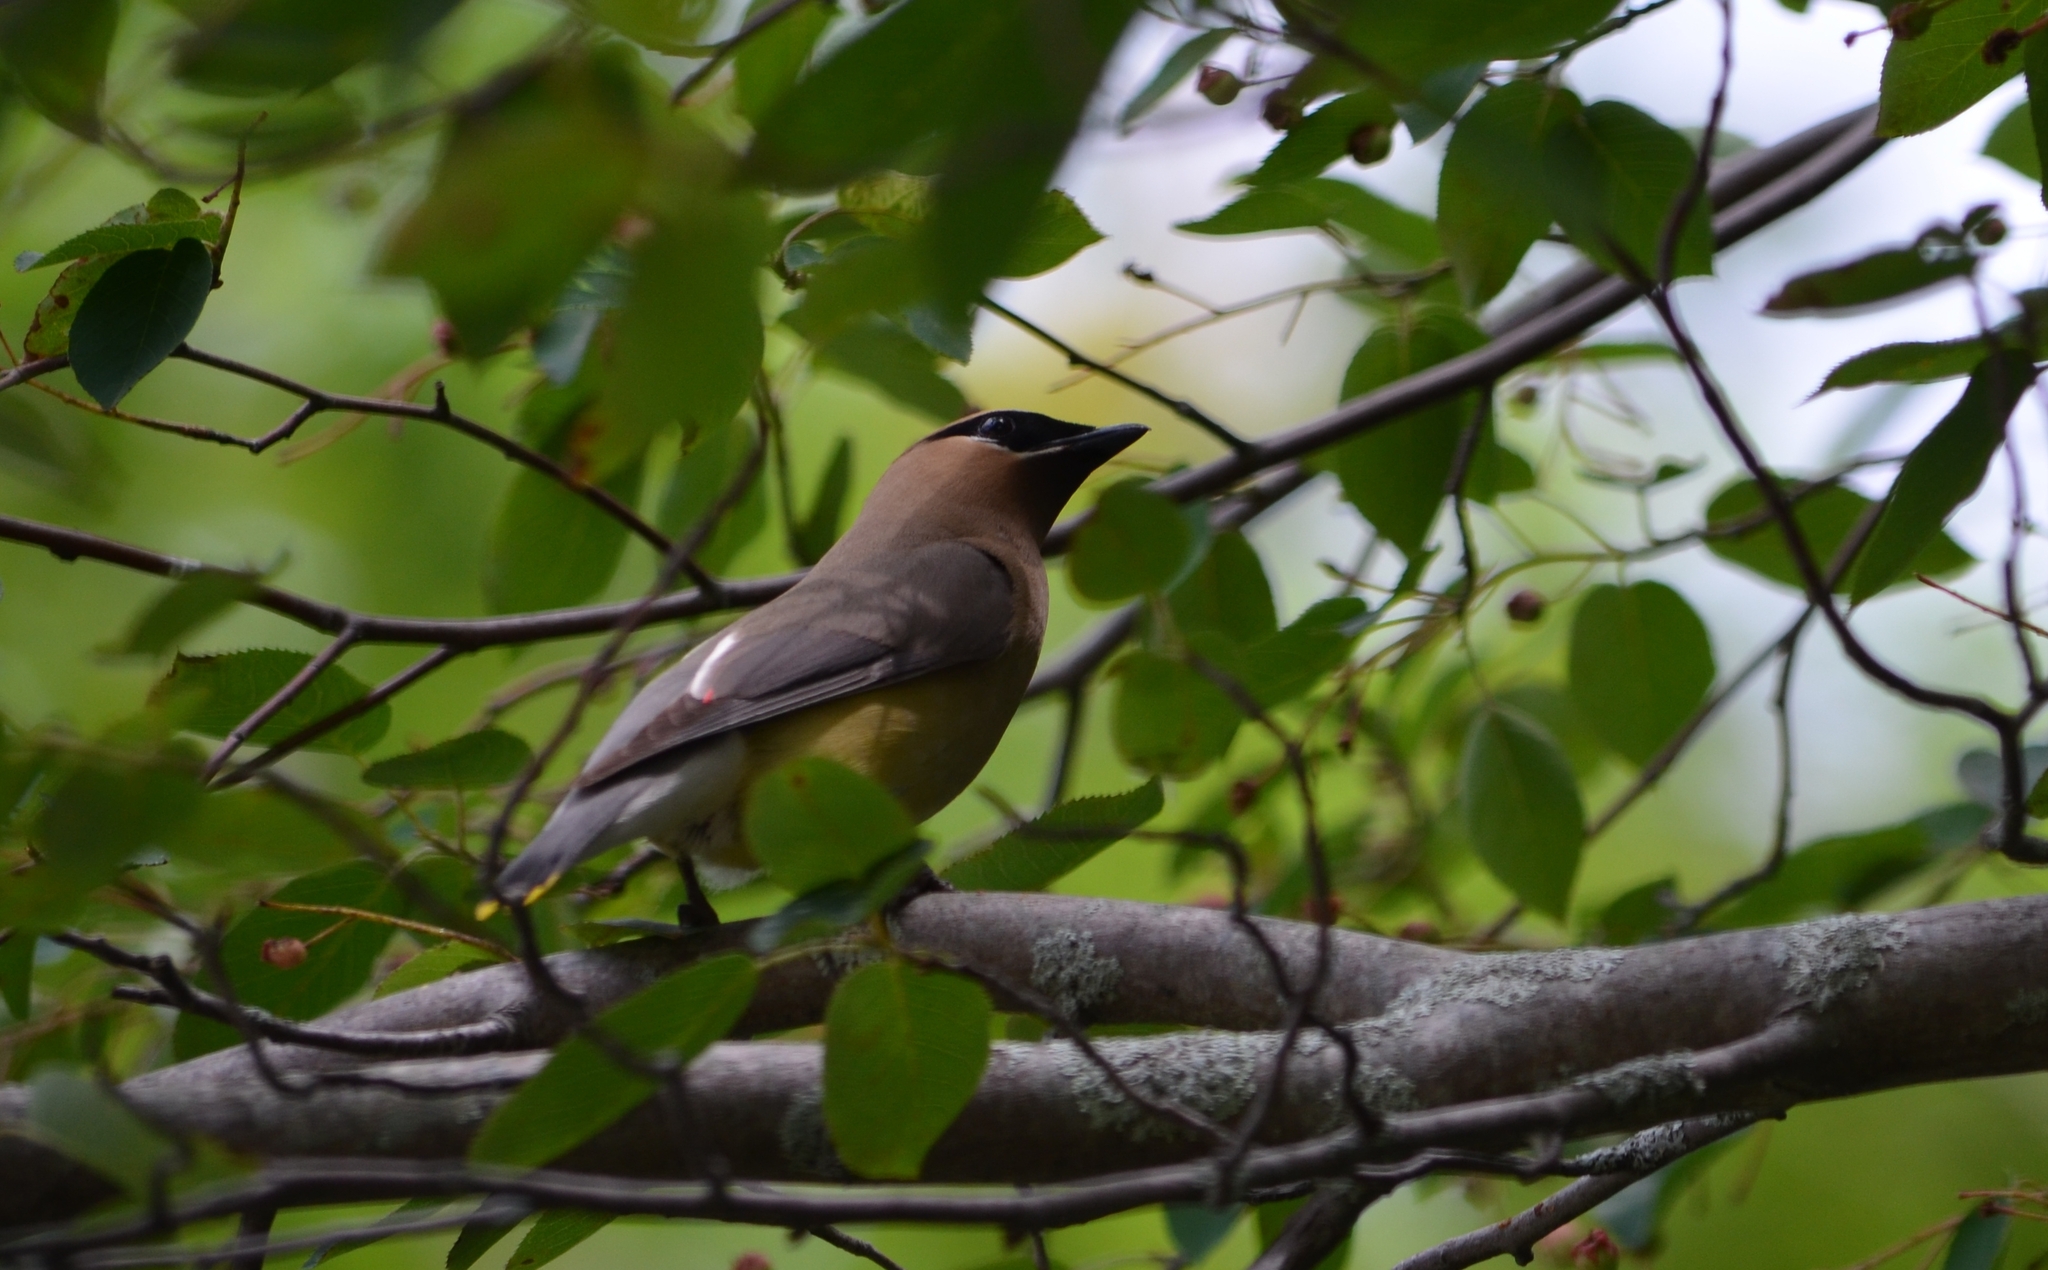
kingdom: Animalia
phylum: Chordata
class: Aves
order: Passeriformes
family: Bombycillidae
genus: Bombycilla
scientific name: Bombycilla cedrorum
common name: Cedar waxwing
